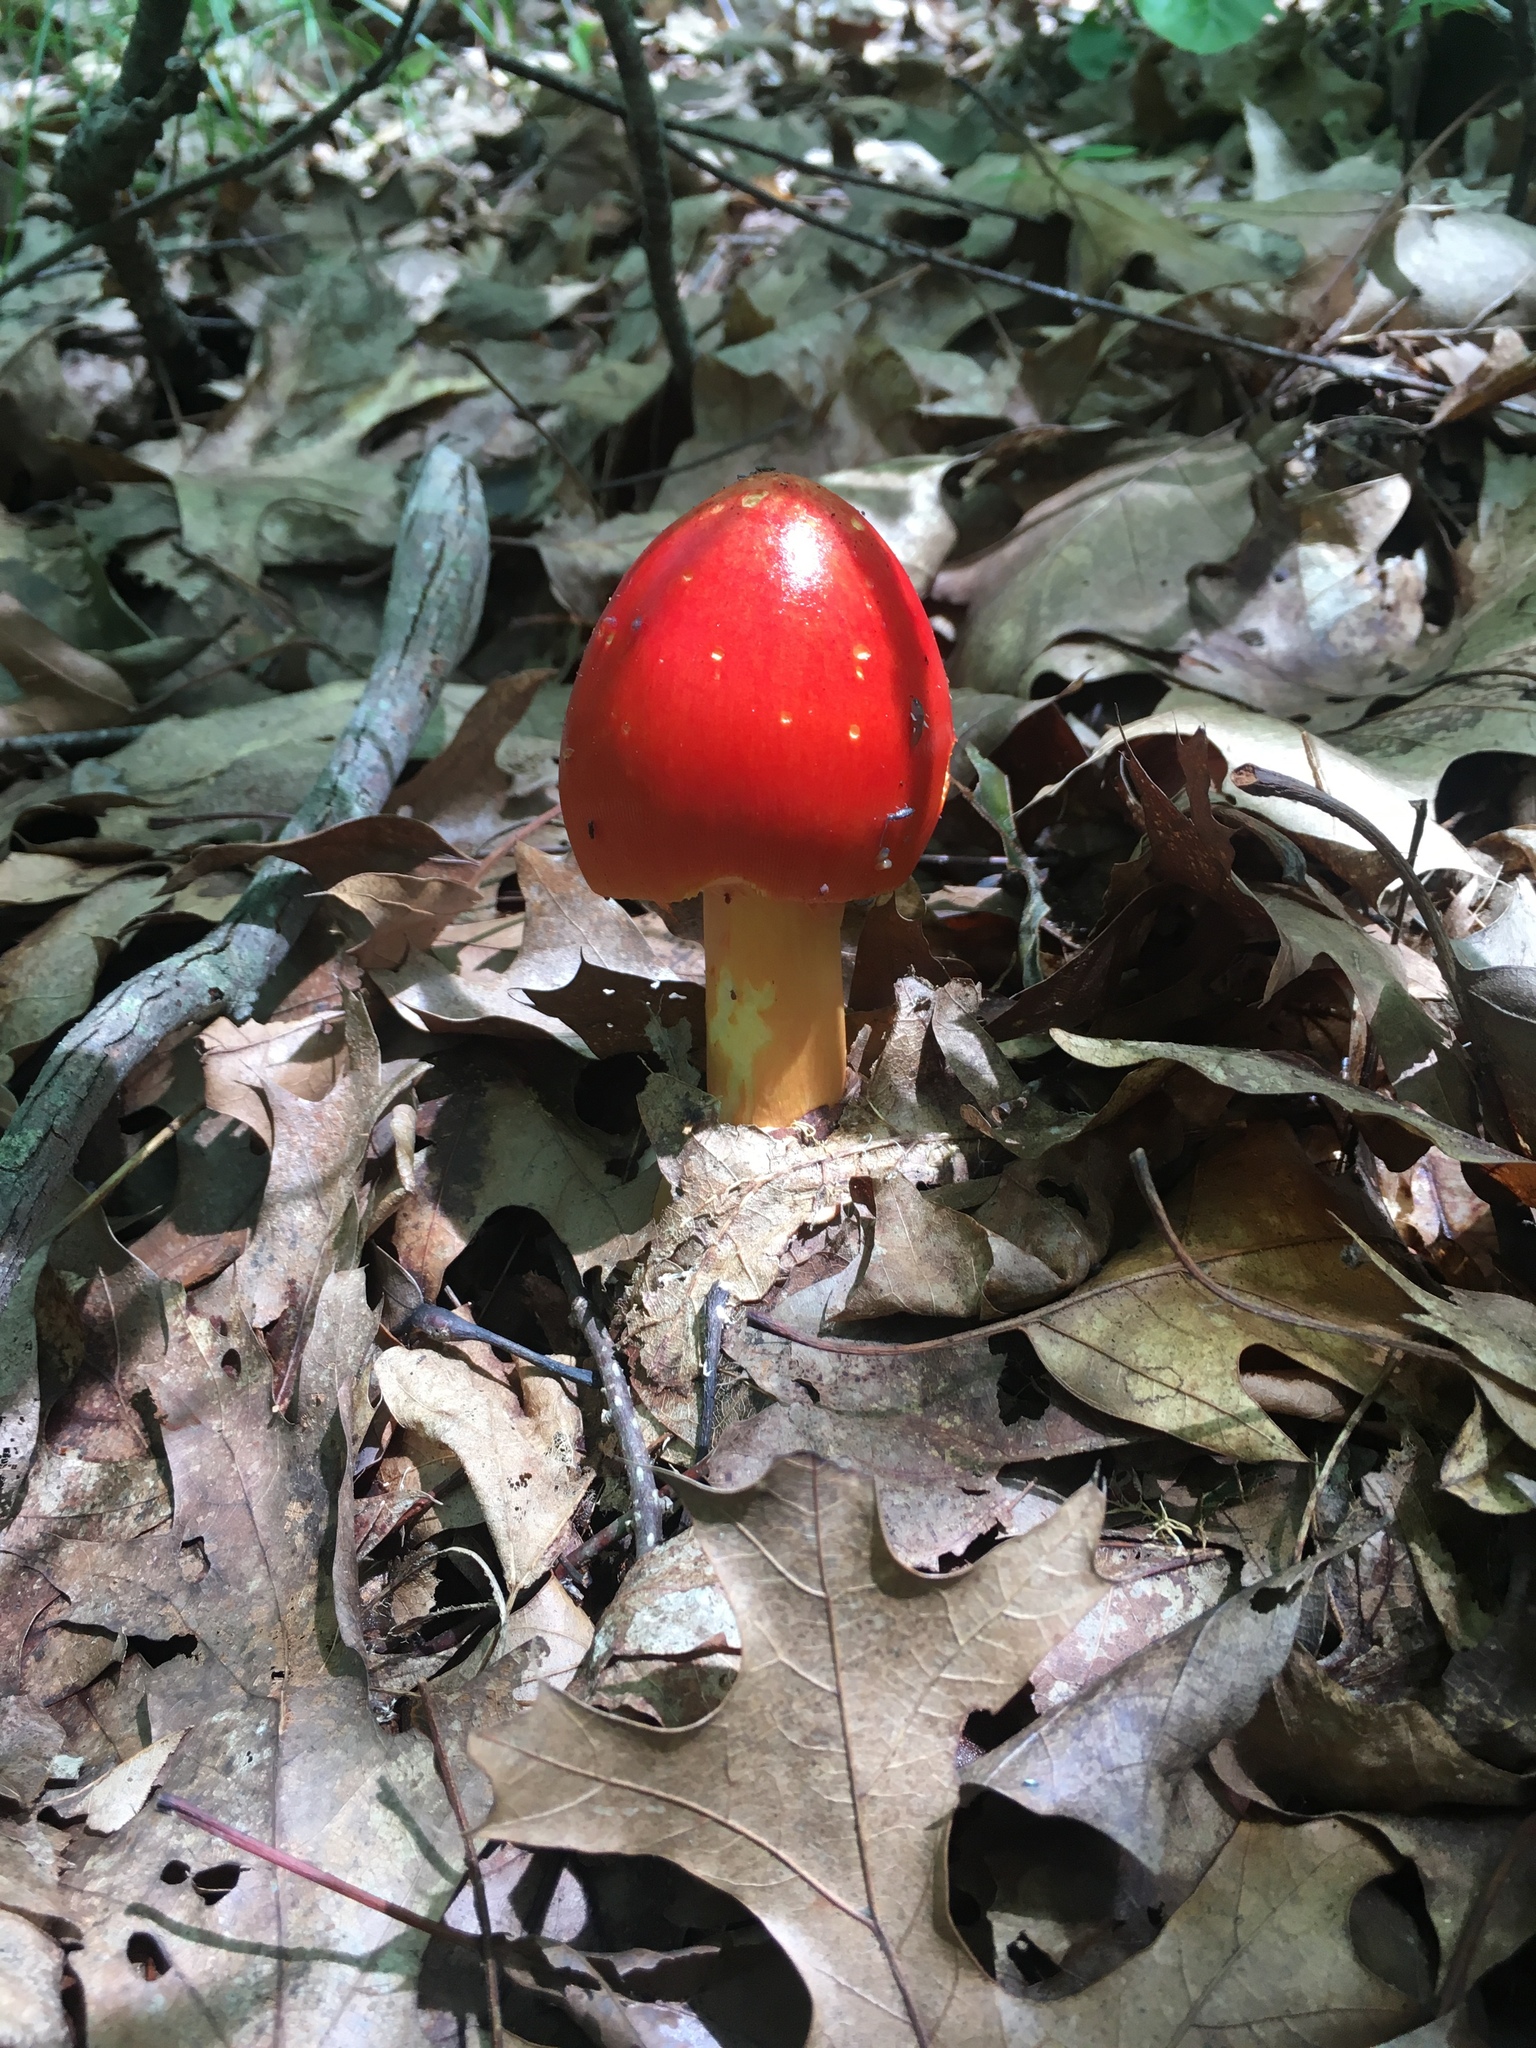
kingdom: Fungi
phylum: Basidiomycota
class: Agaricomycetes
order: Agaricales
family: Amanitaceae
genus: Amanita
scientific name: Amanita jacksonii
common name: Jackson's slender caesar
